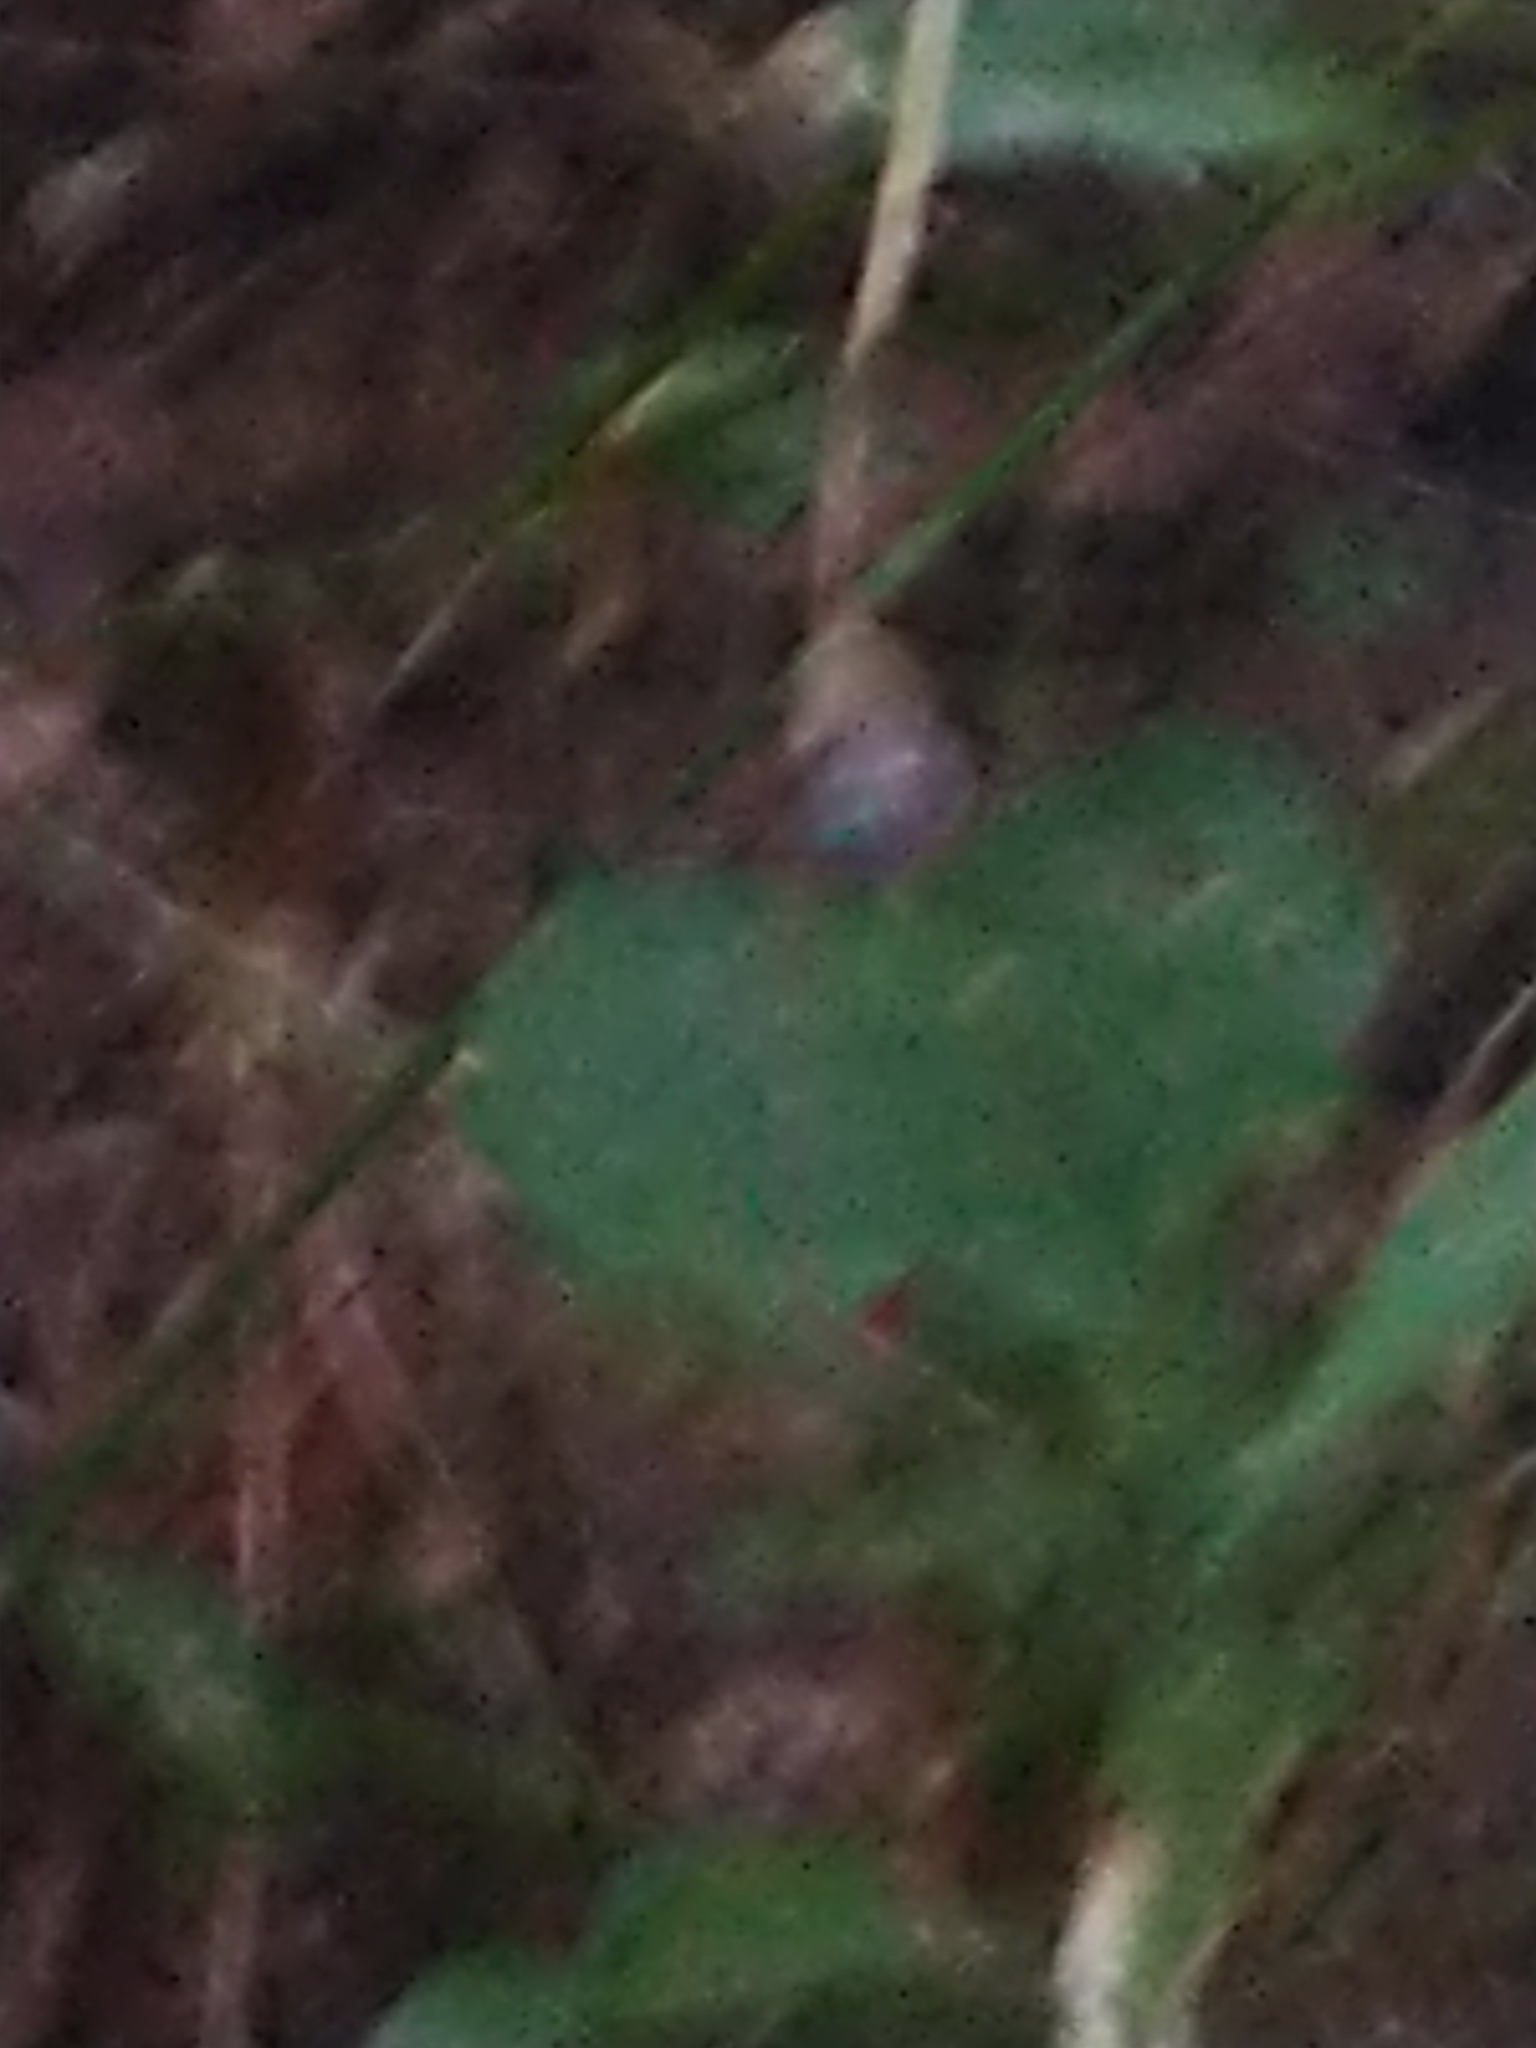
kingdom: Animalia
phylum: Arthropoda
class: Insecta
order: Hymenoptera
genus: Zonamegilla
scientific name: Zonamegilla
